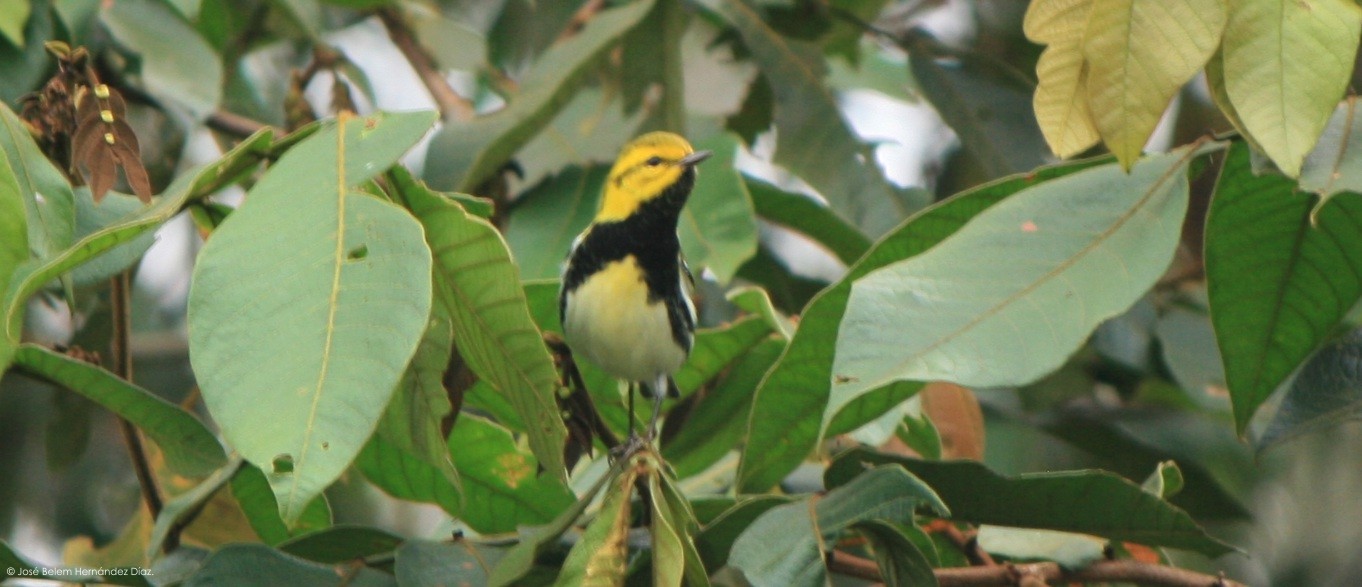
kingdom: Animalia
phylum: Chordata
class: Aves
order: Passeriformes
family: Parulidae
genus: Setophaga
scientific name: Setophaga virens
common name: Black-throated green warbler
